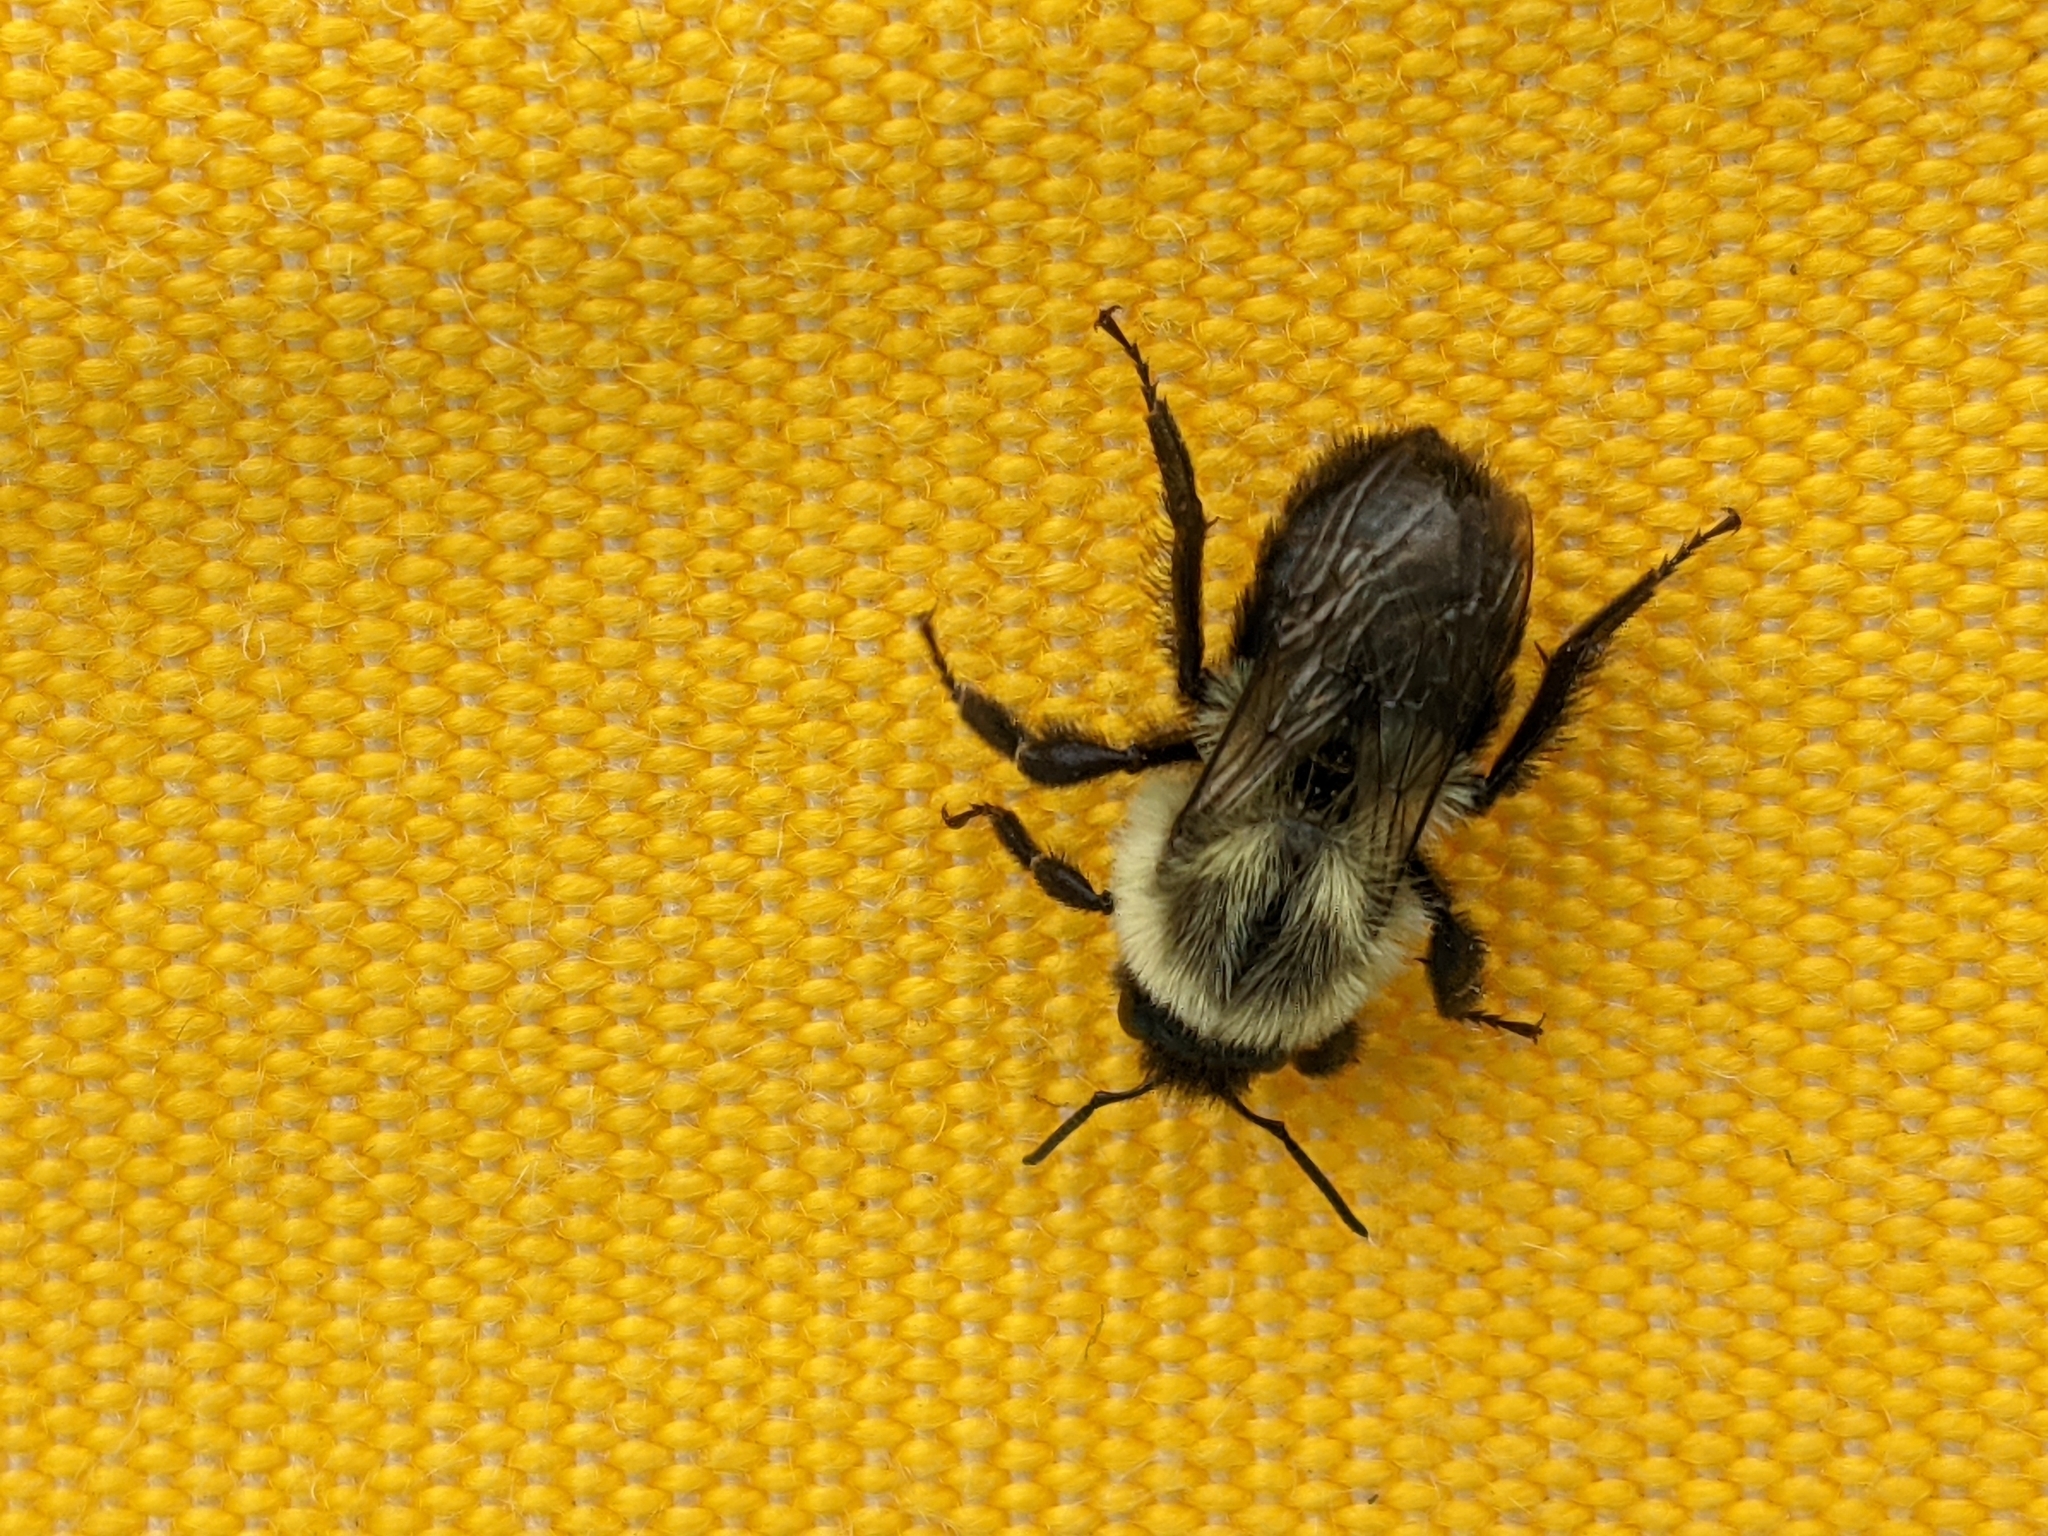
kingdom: Animalia
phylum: Arthropoda
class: Insecta
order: Hymenoptera
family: Apidae
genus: Bombus
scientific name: Bombus impatiens
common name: Common eastern bumble bee
